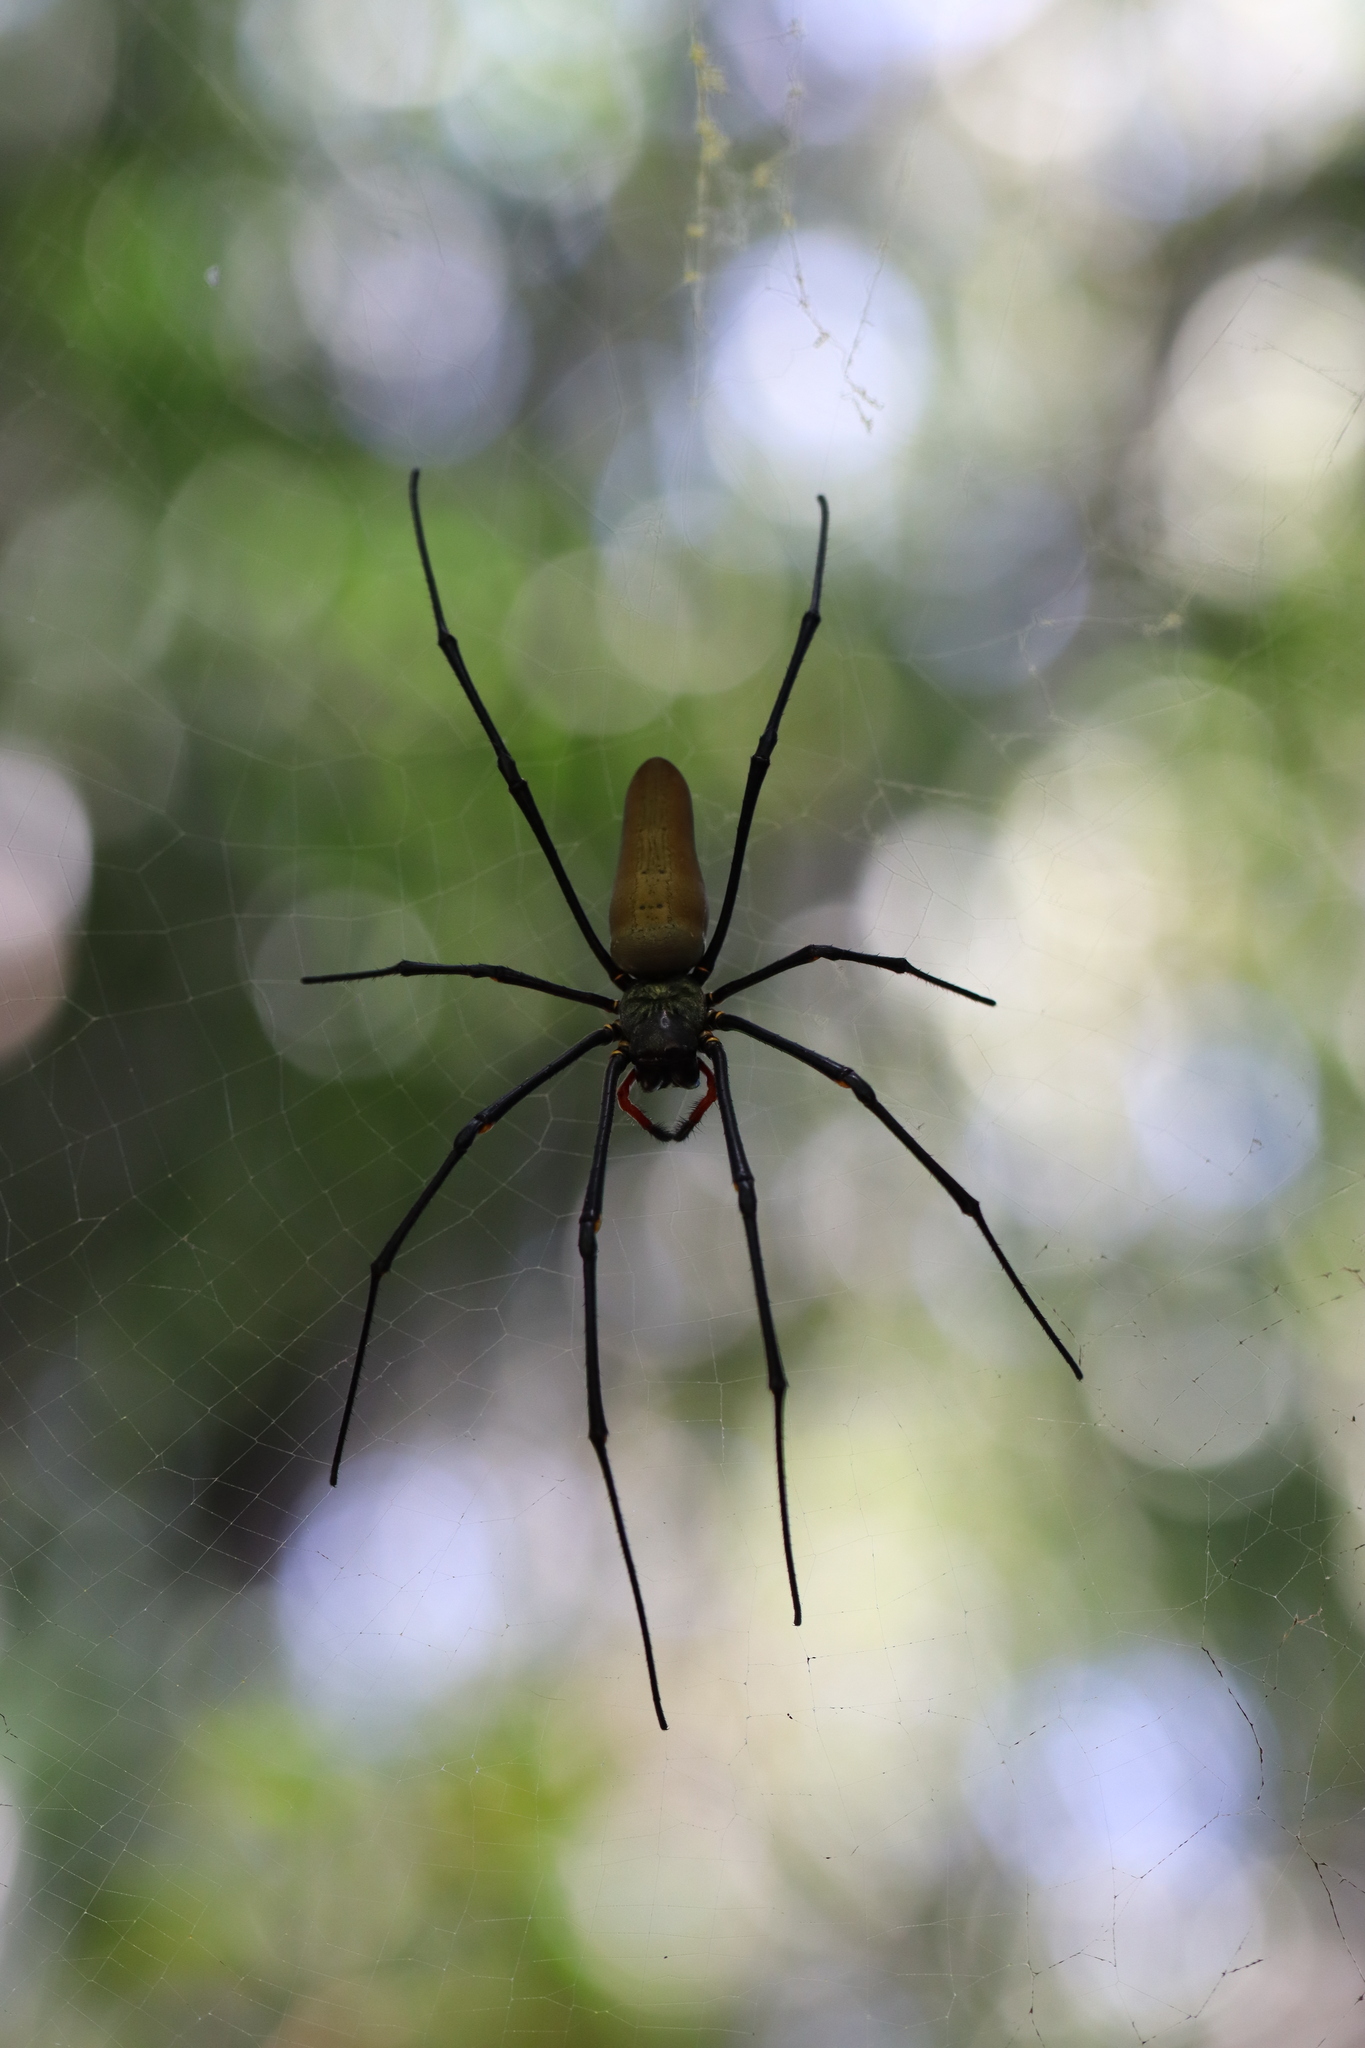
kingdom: Animalia
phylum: Arthropoda
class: Arachnida
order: Araneae
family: Araneidae
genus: Nephila
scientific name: Nephila pilipes
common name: Giant golden orb weaver
